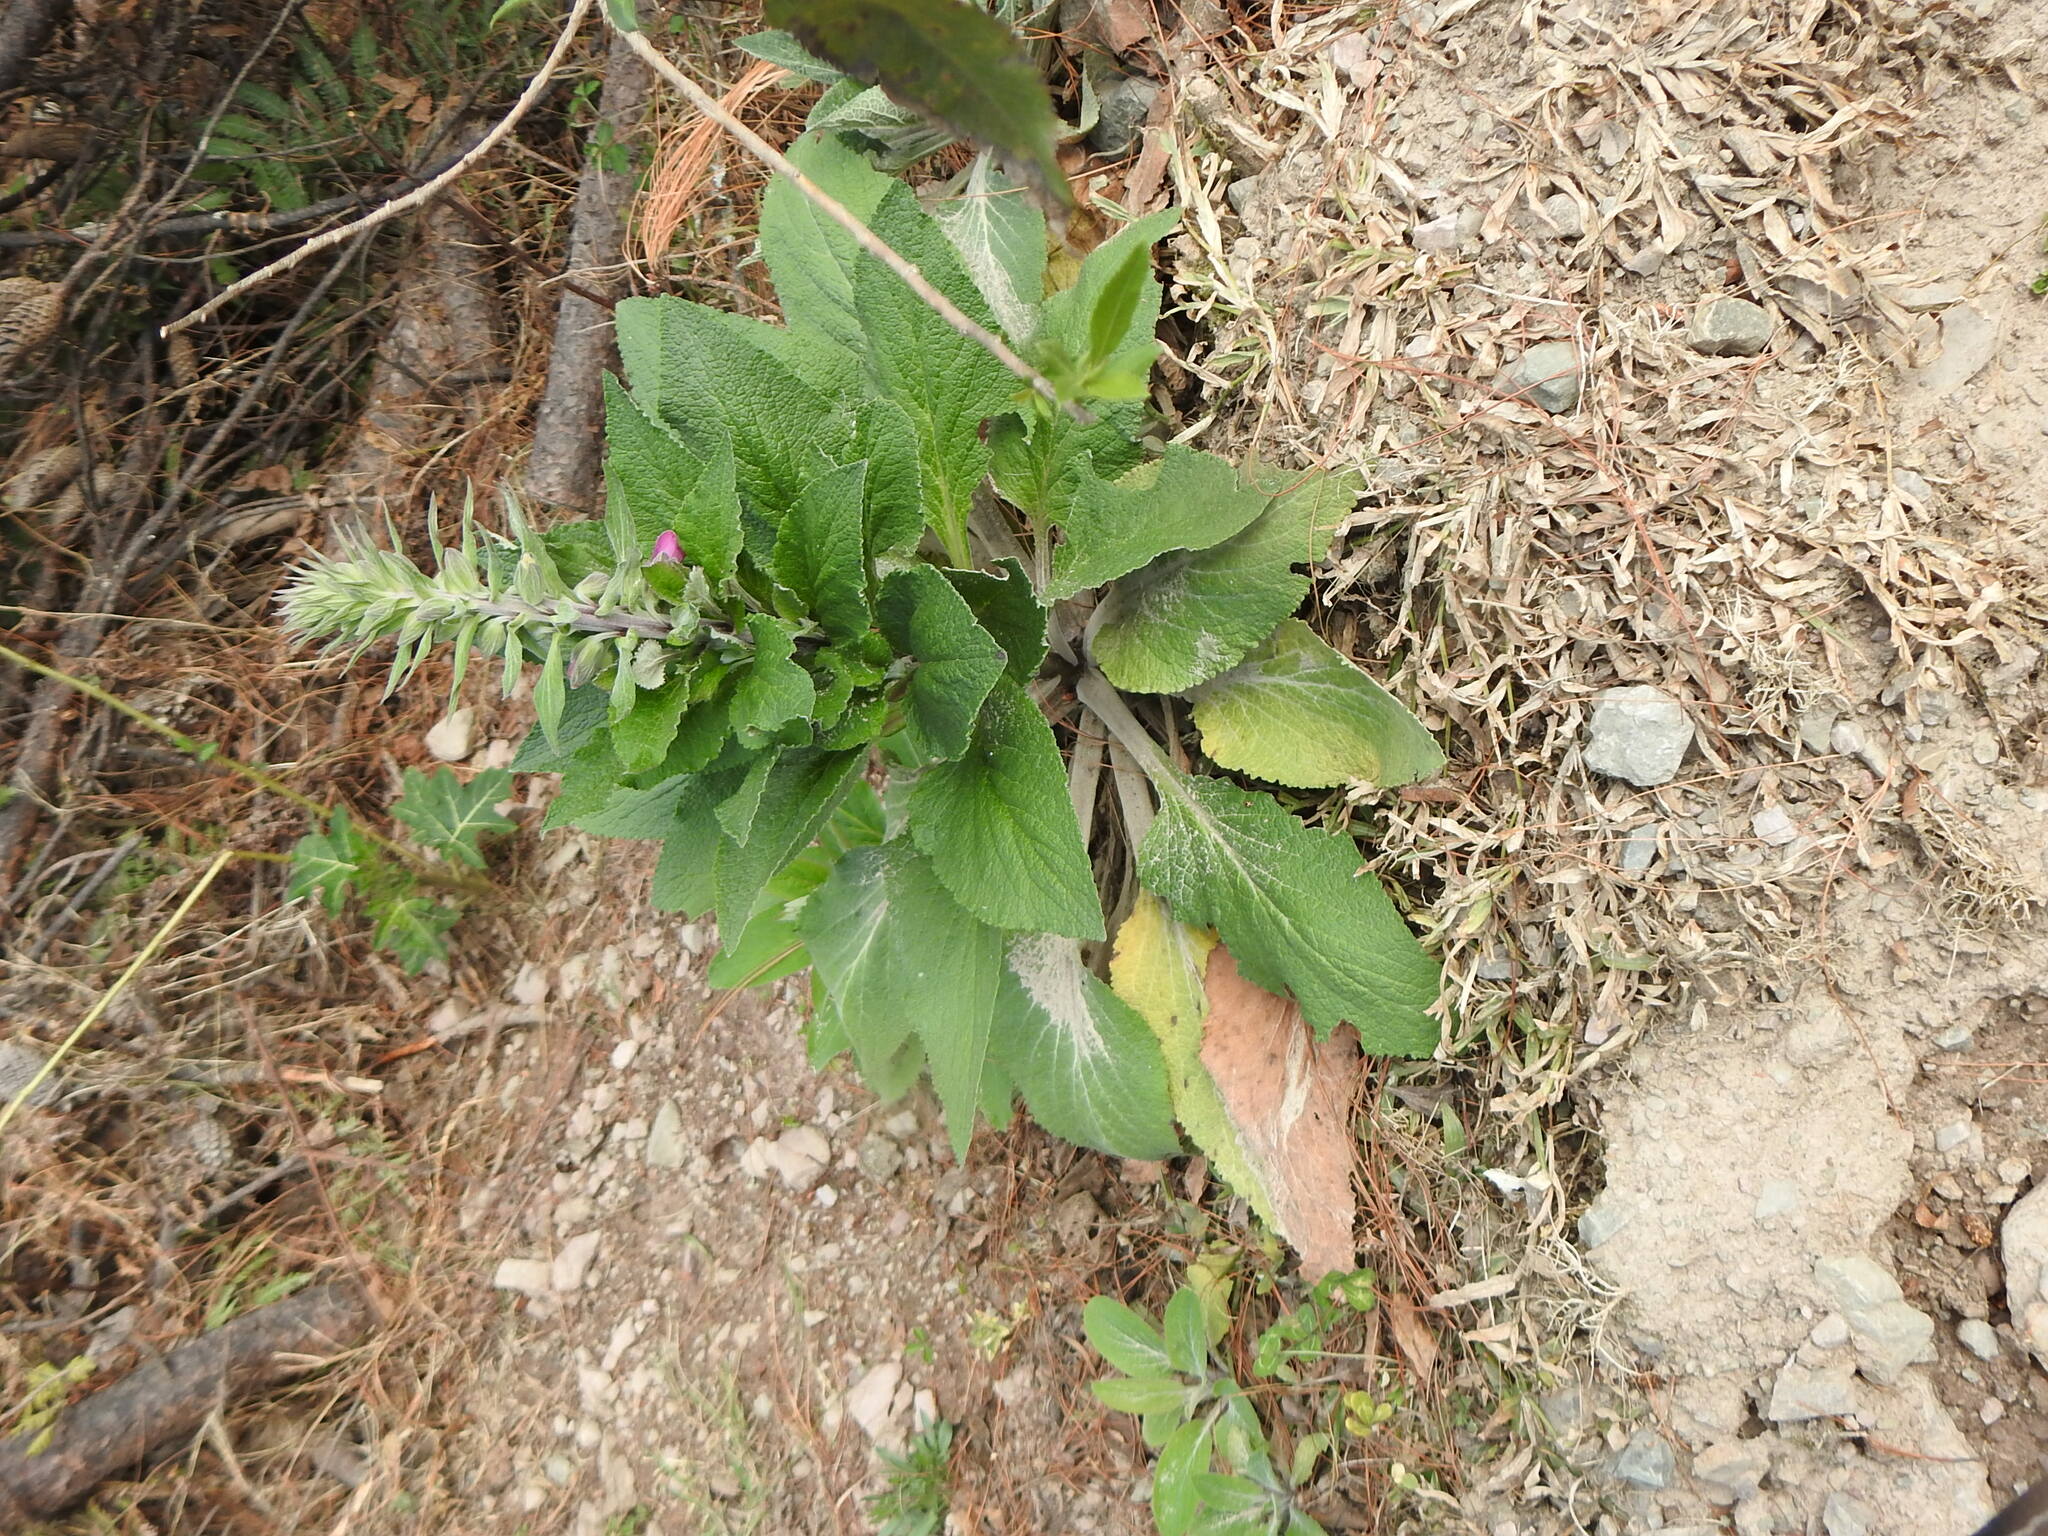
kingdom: Plantae
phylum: Tracheophyta
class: Magnoliopsida
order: Lamiales
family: Plantaginaceae
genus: Digitalis
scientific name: Digitalis purpurea
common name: Foxglove
